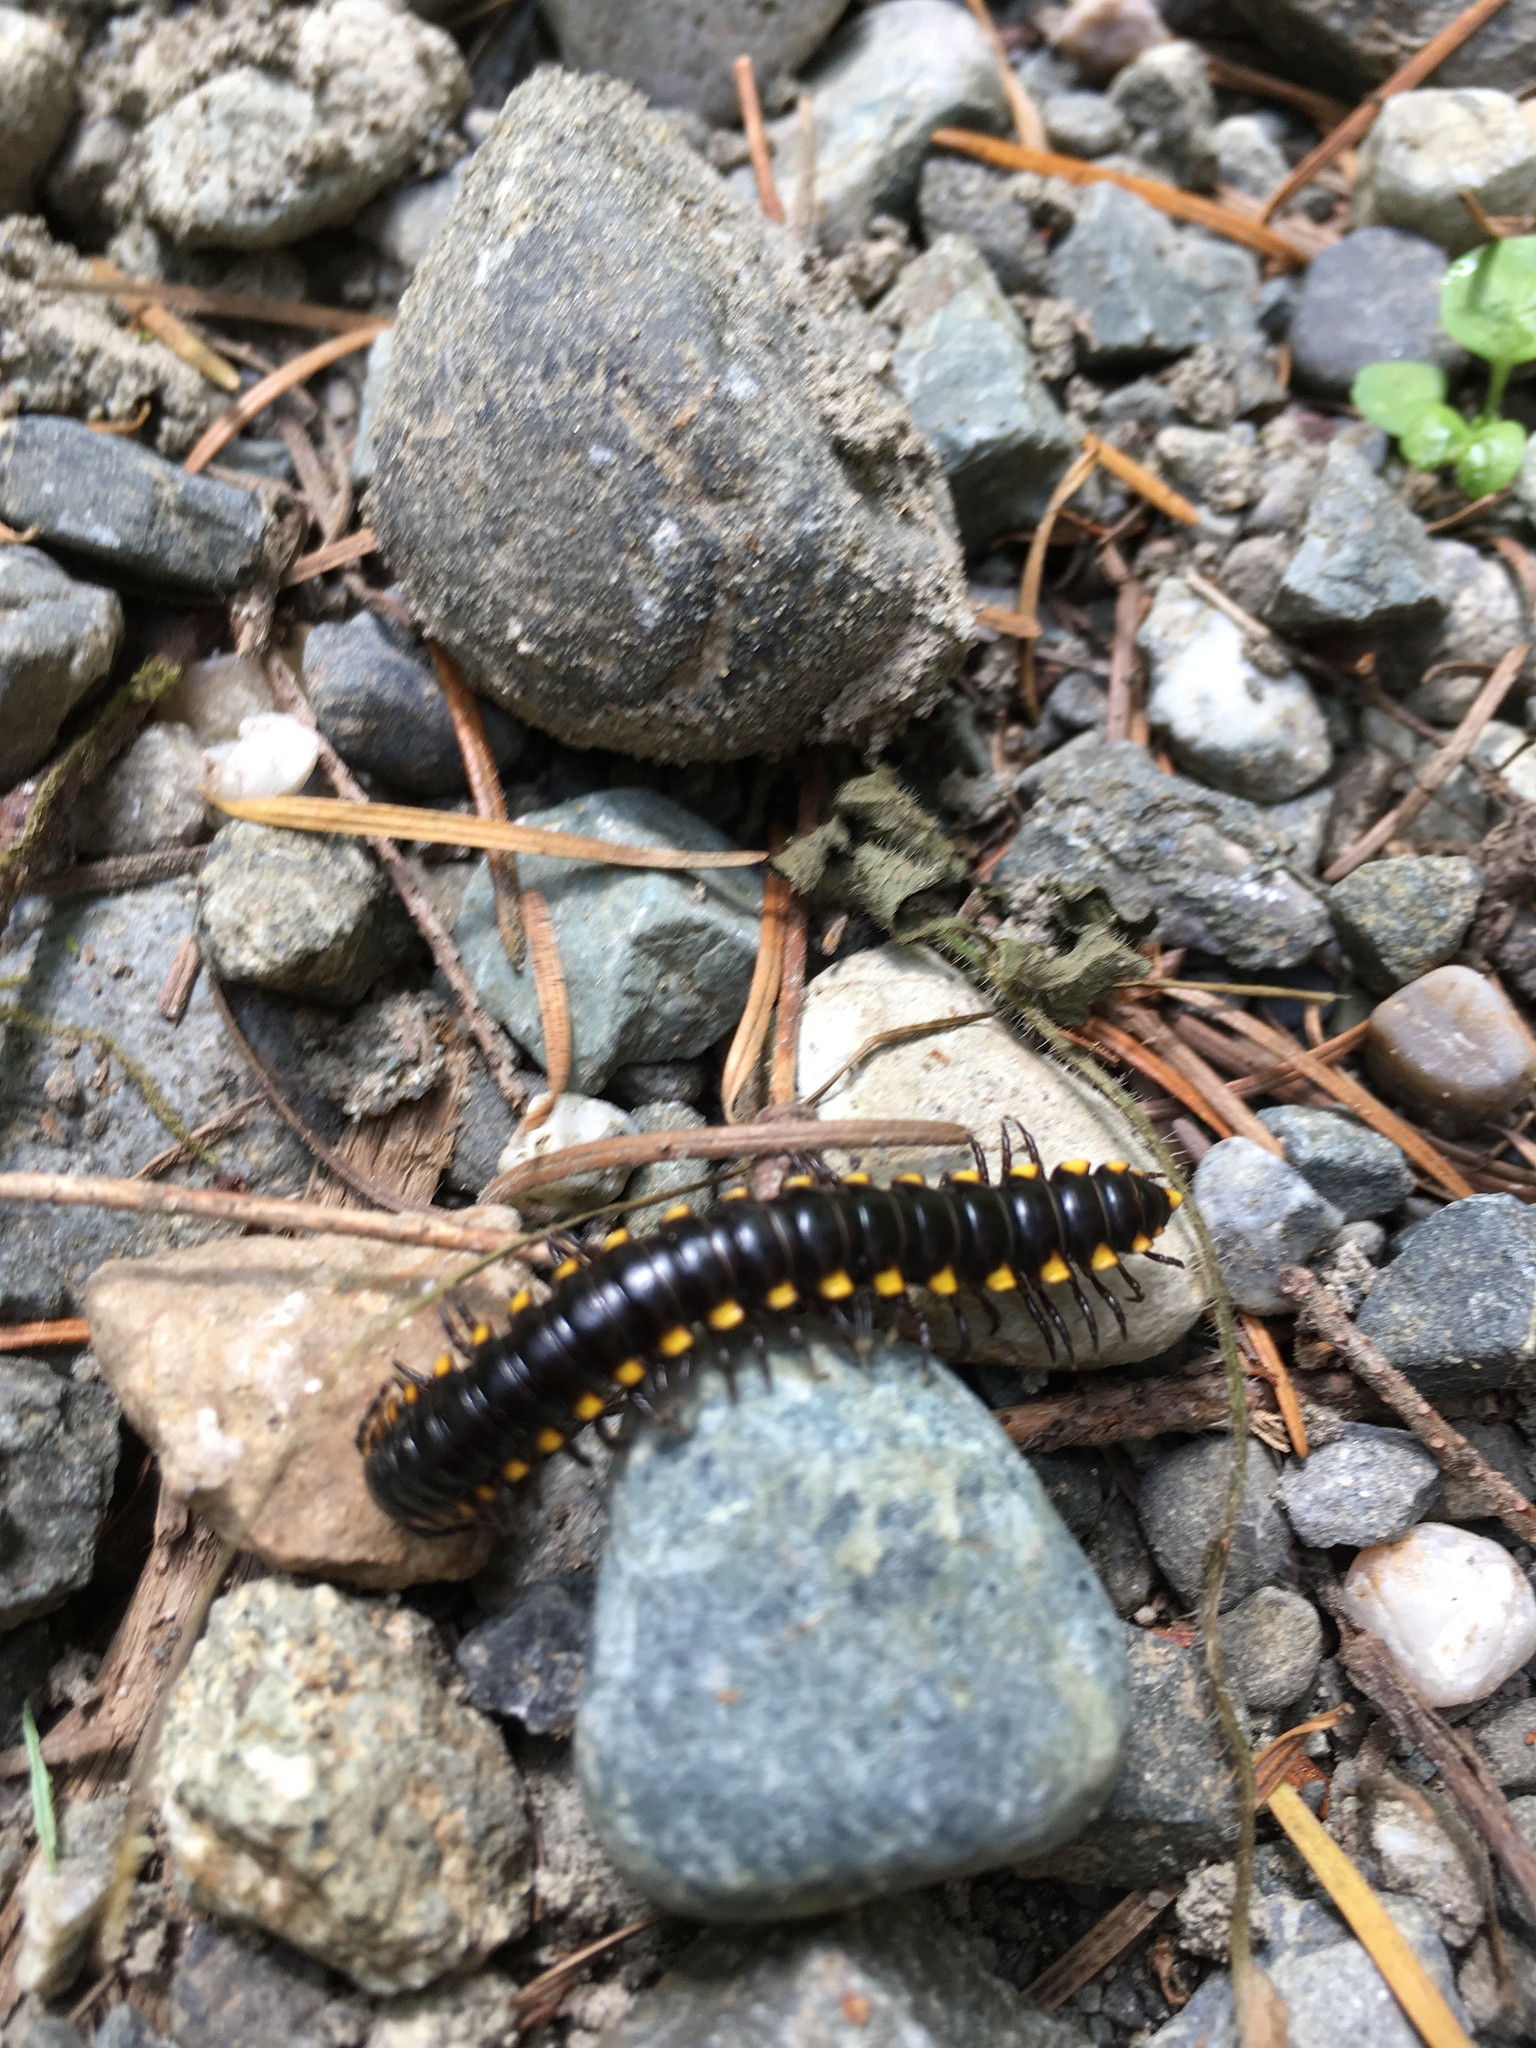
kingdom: Animalia
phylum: Arthropoda
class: Diplopoda
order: Polydesmida
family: Xystodesmidae
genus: Harpaphe
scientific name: Harpaphe haydeniana
